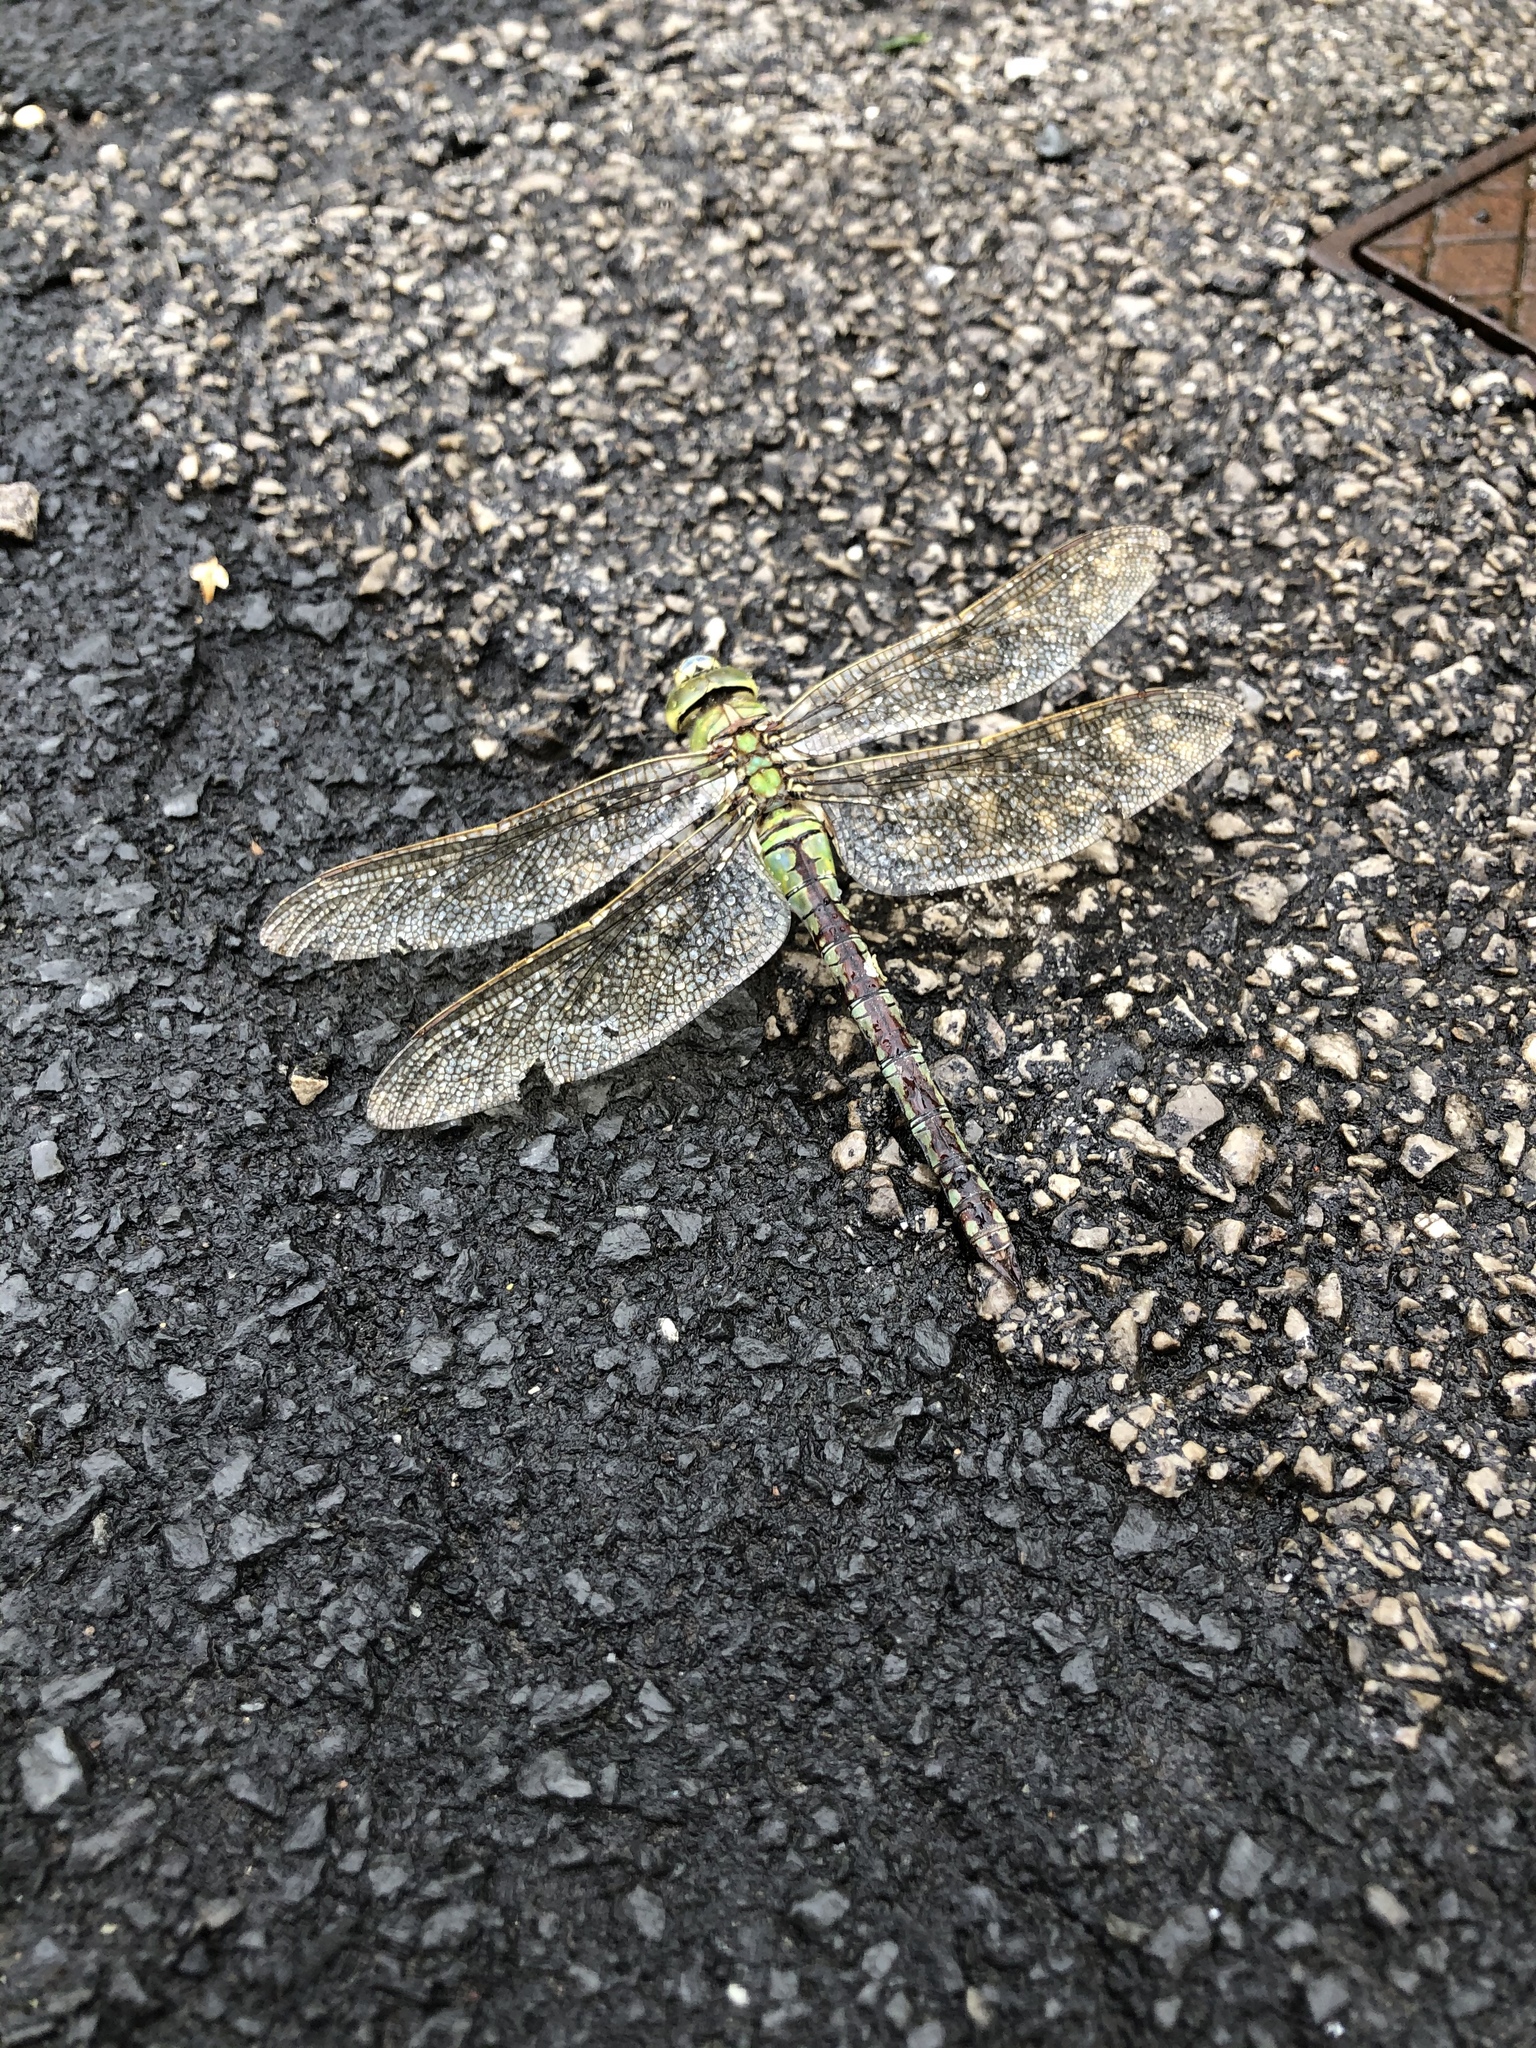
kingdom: Animalia
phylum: Arthropoda
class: Insecta
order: Odonata
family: Aeshnidae
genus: Anax
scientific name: Anax imperator
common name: Emperor dragonfly
